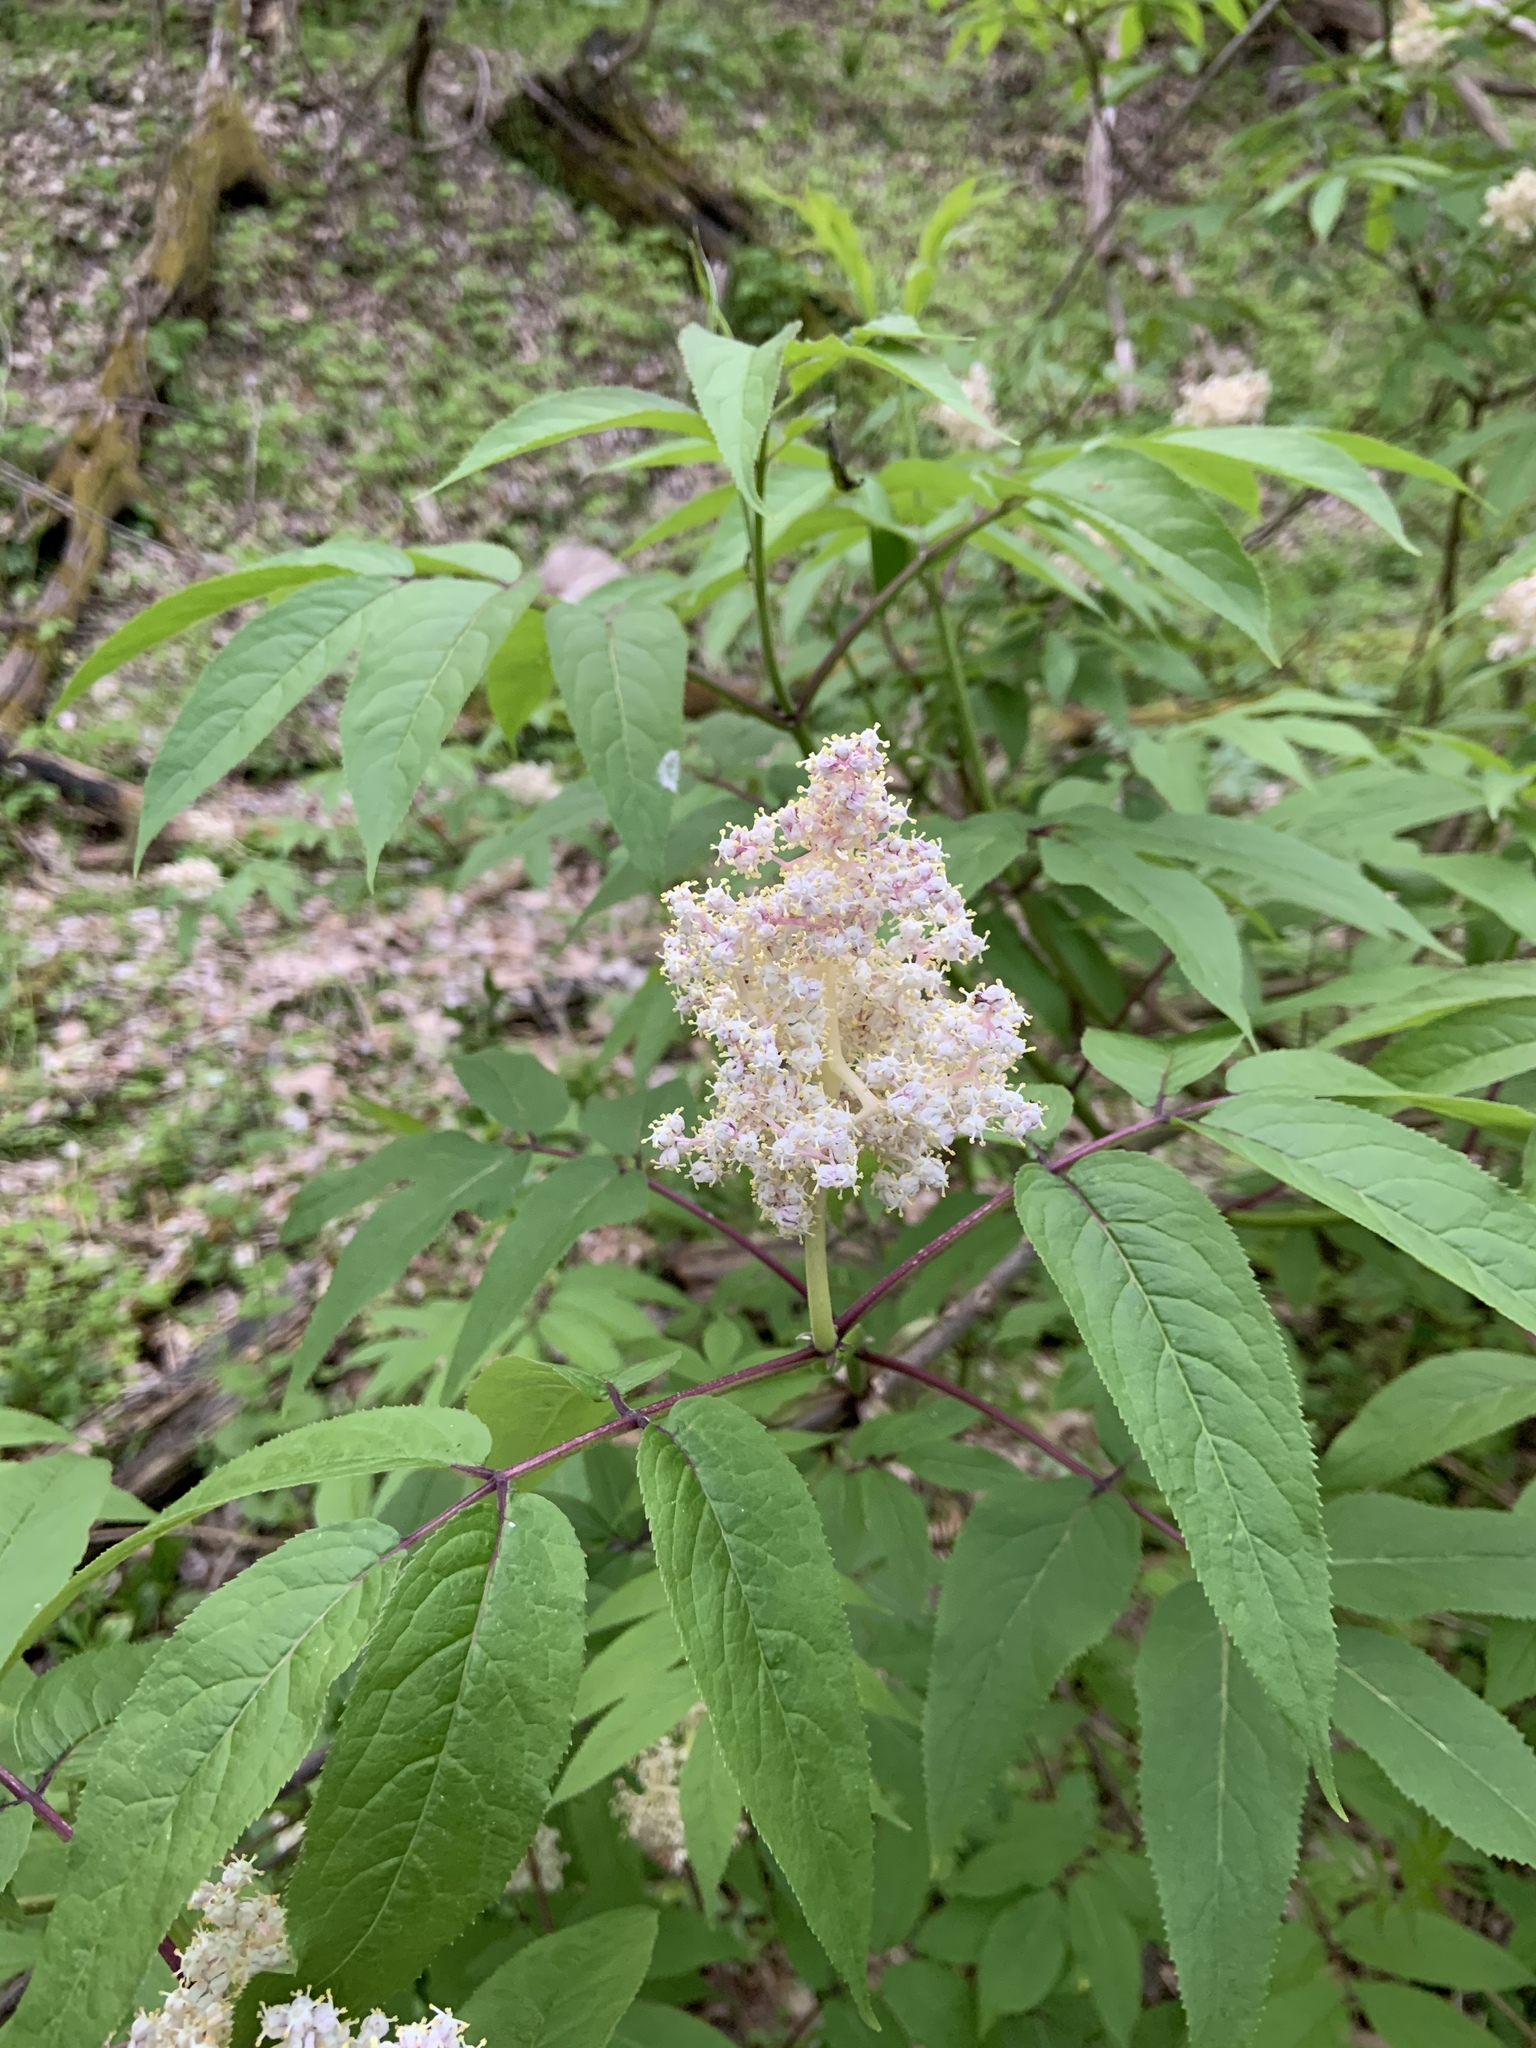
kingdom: Plantae
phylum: Tracheophyta
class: Magnoliopsida
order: Dipsacales
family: Viburnaceae
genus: Sambucus
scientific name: Sambucus racemosa
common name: Red-berried elder
